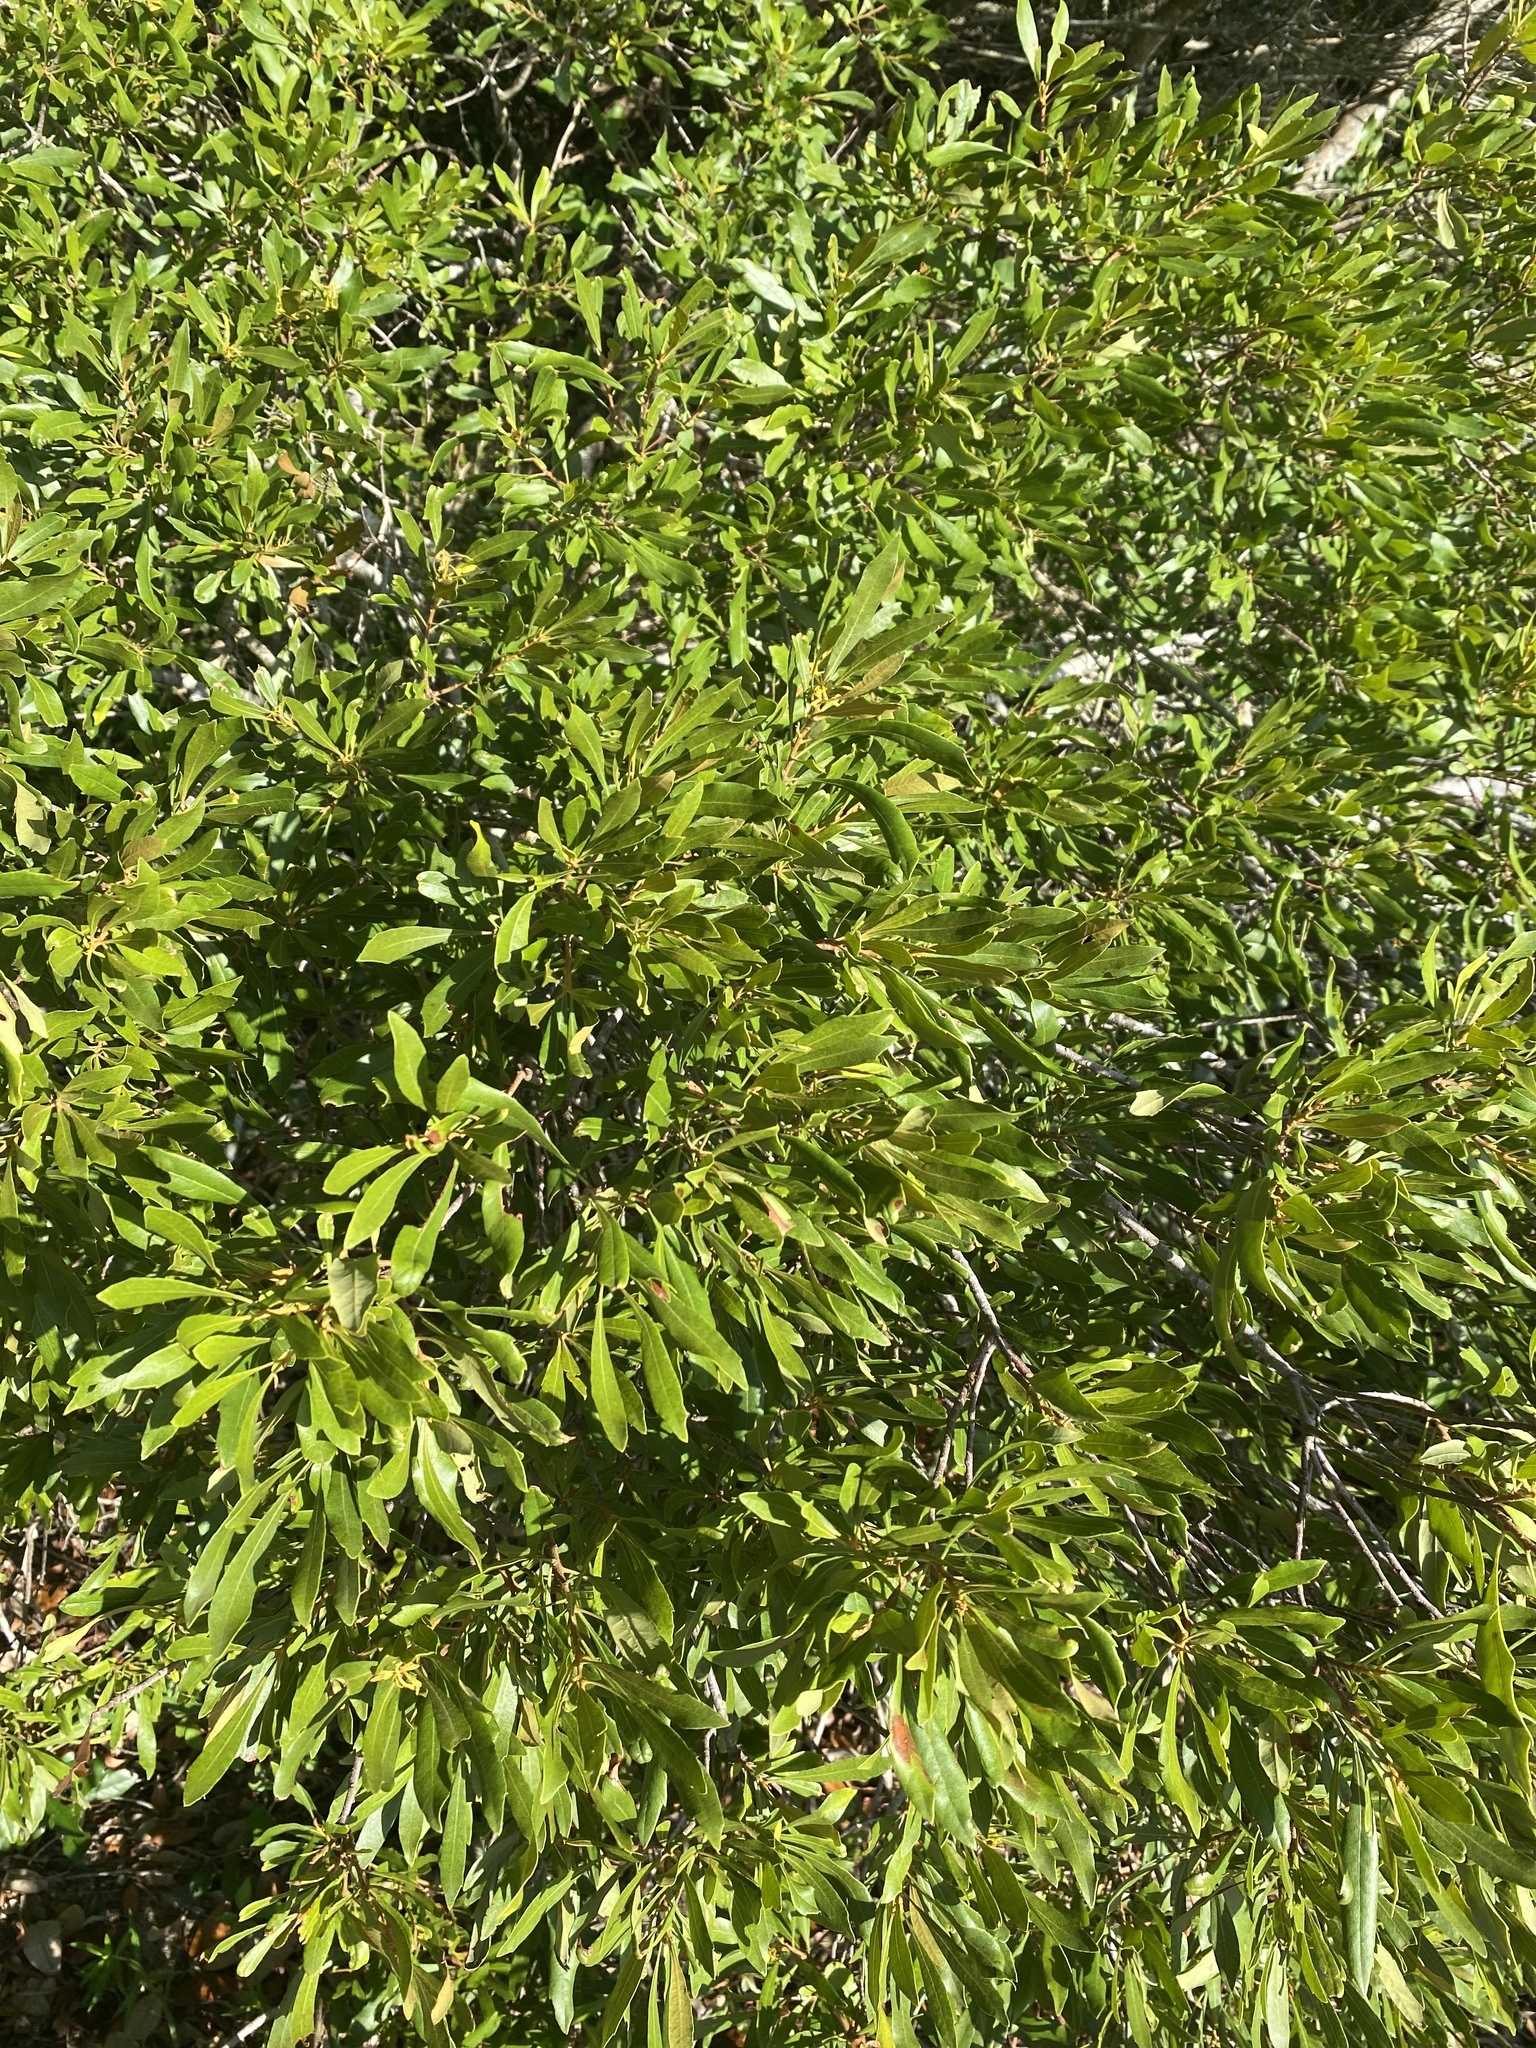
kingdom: Plantae
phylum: Tracheophyta
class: Magnoliopsida
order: Fagales
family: Myricaceae
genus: Morella
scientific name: Morella cerifera
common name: Wax myrtle
